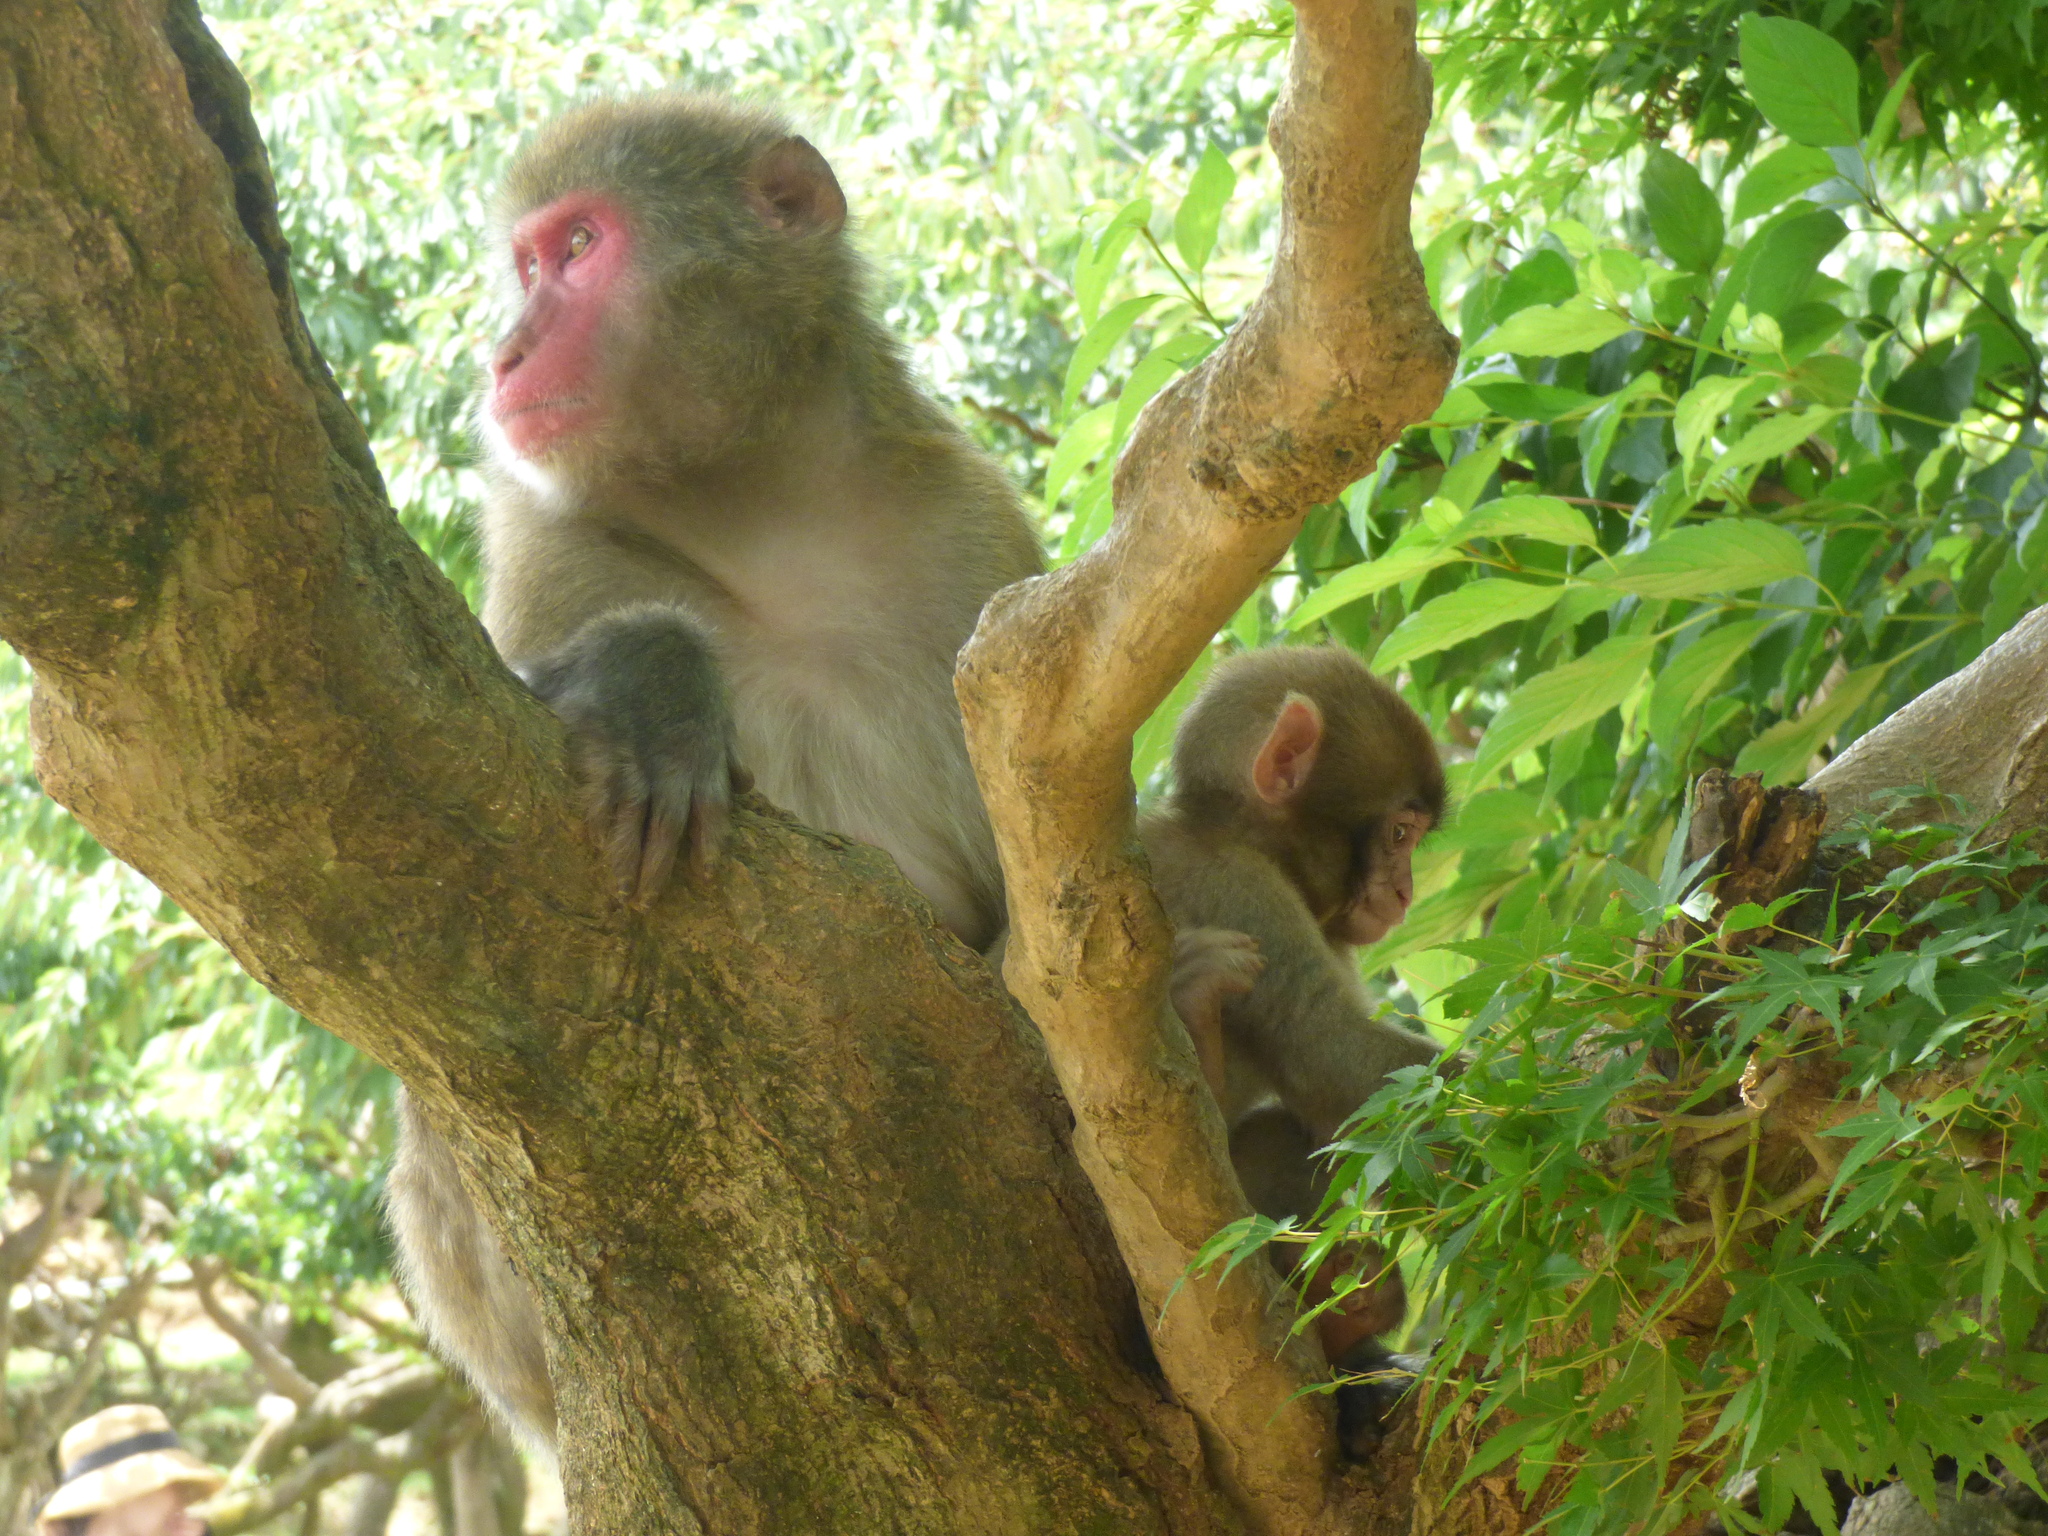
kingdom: Animalia
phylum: Chordata
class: Mammalia
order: Primates
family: Cercopithecidae
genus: Macaca
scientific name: Macaca fuscata
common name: Japanese macaque
